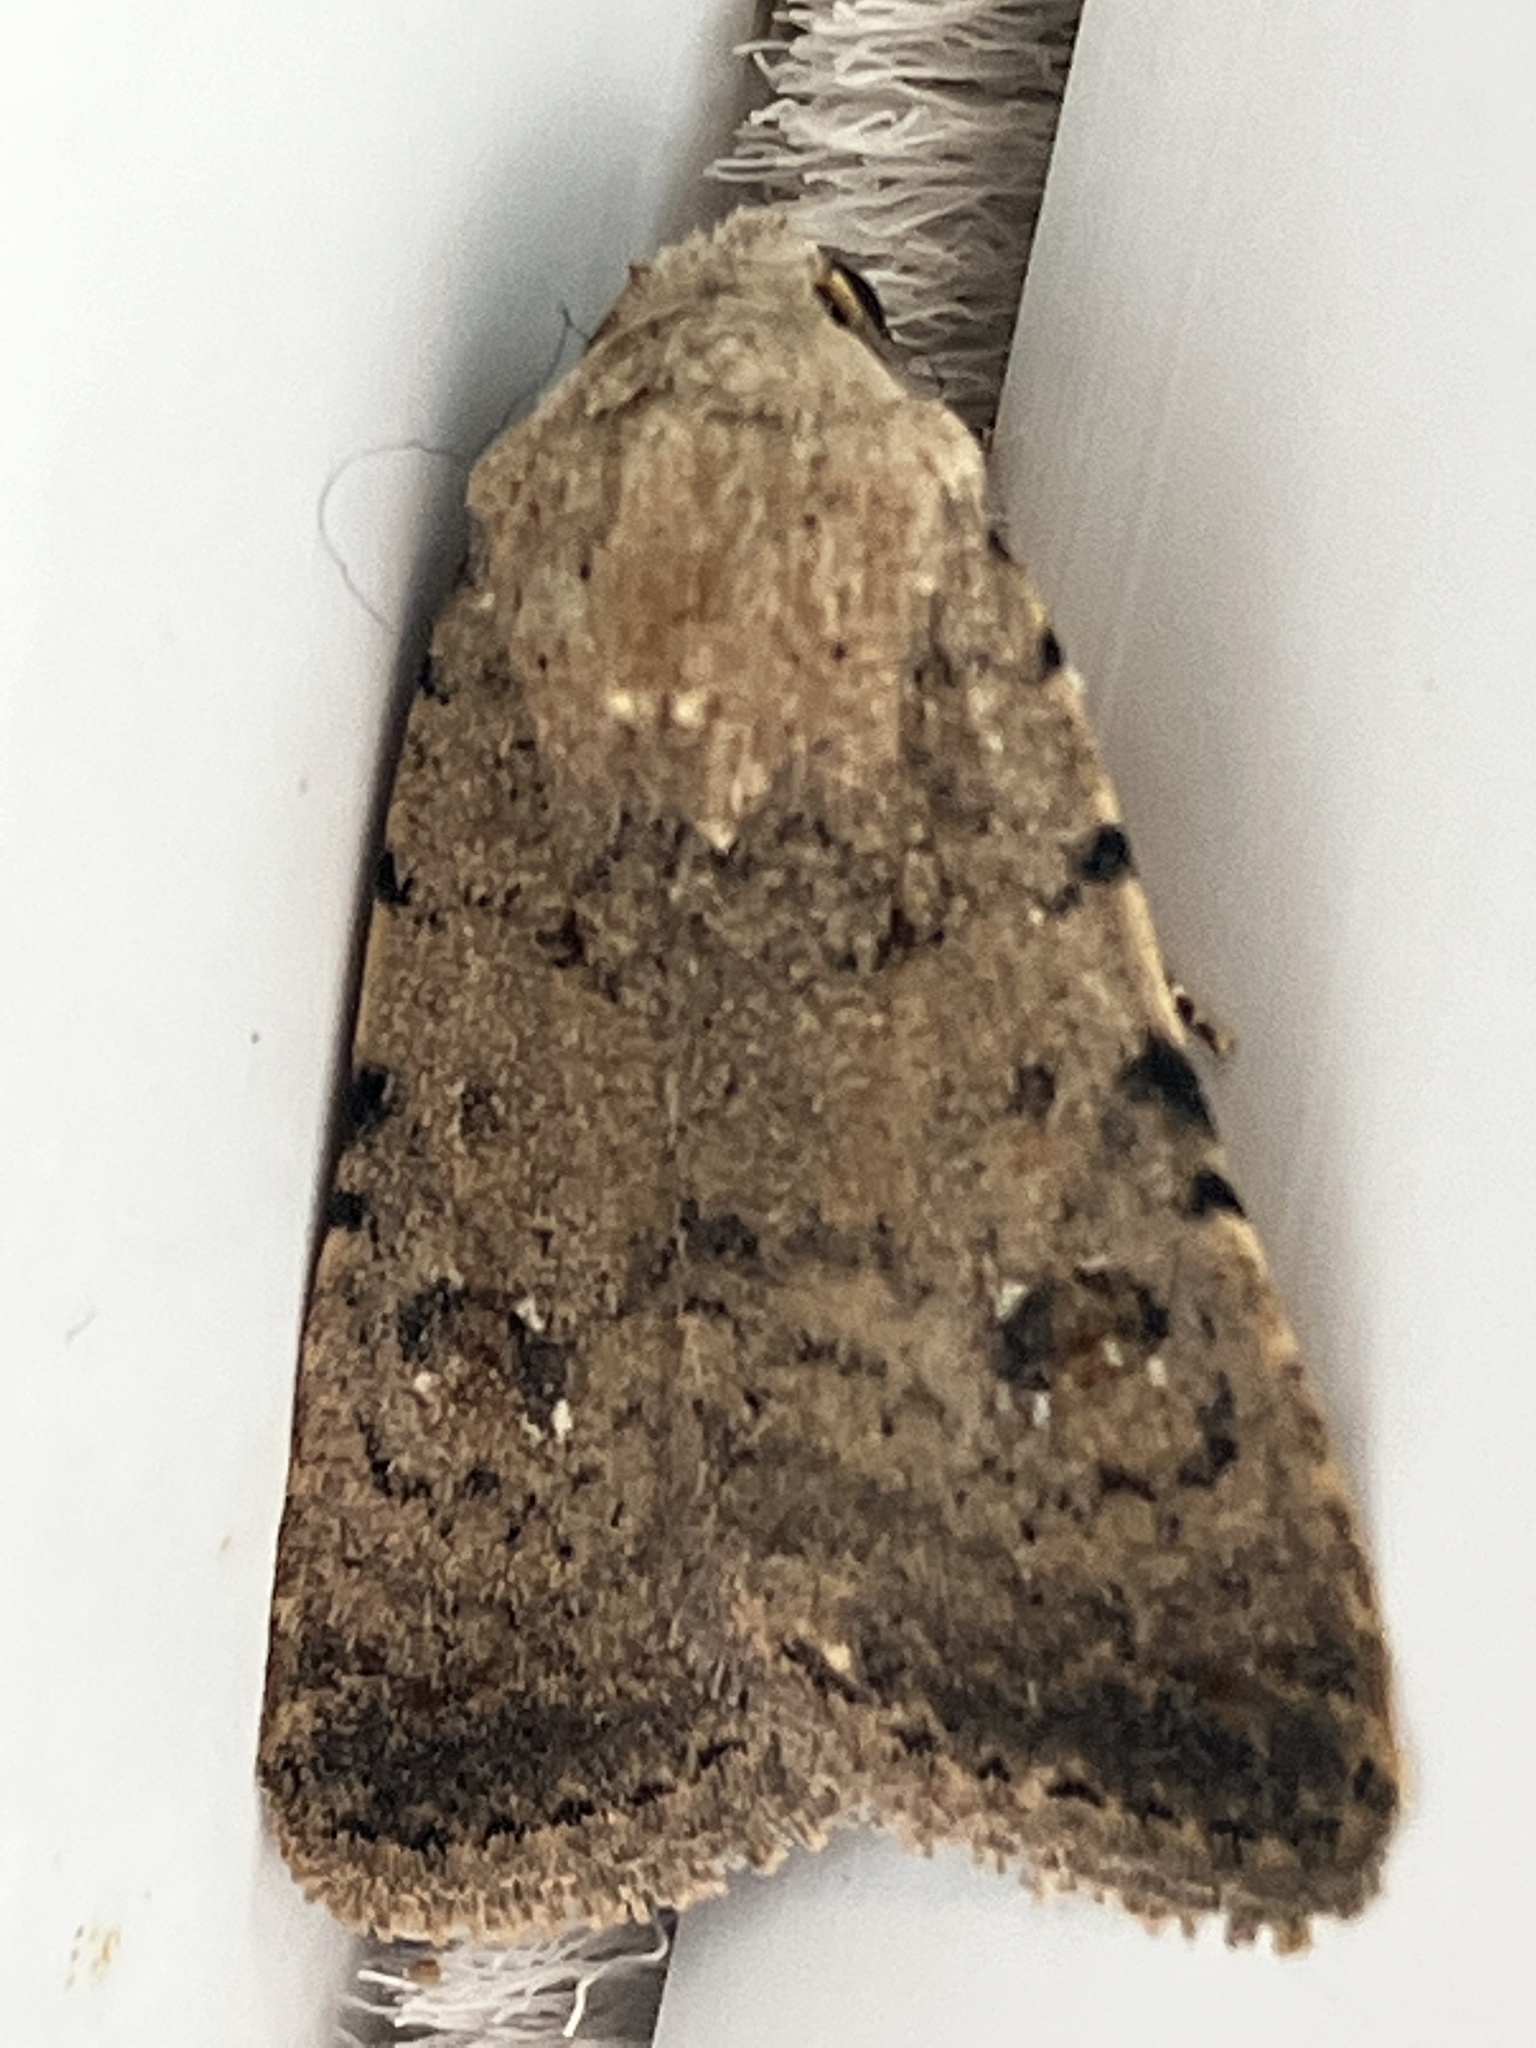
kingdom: Animalia
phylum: Arthropoda
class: Insecta
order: Lepidoptera
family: Noctuidae
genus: Caradrina
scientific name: Caradrina clavipalpis
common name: Pale mottled willow
